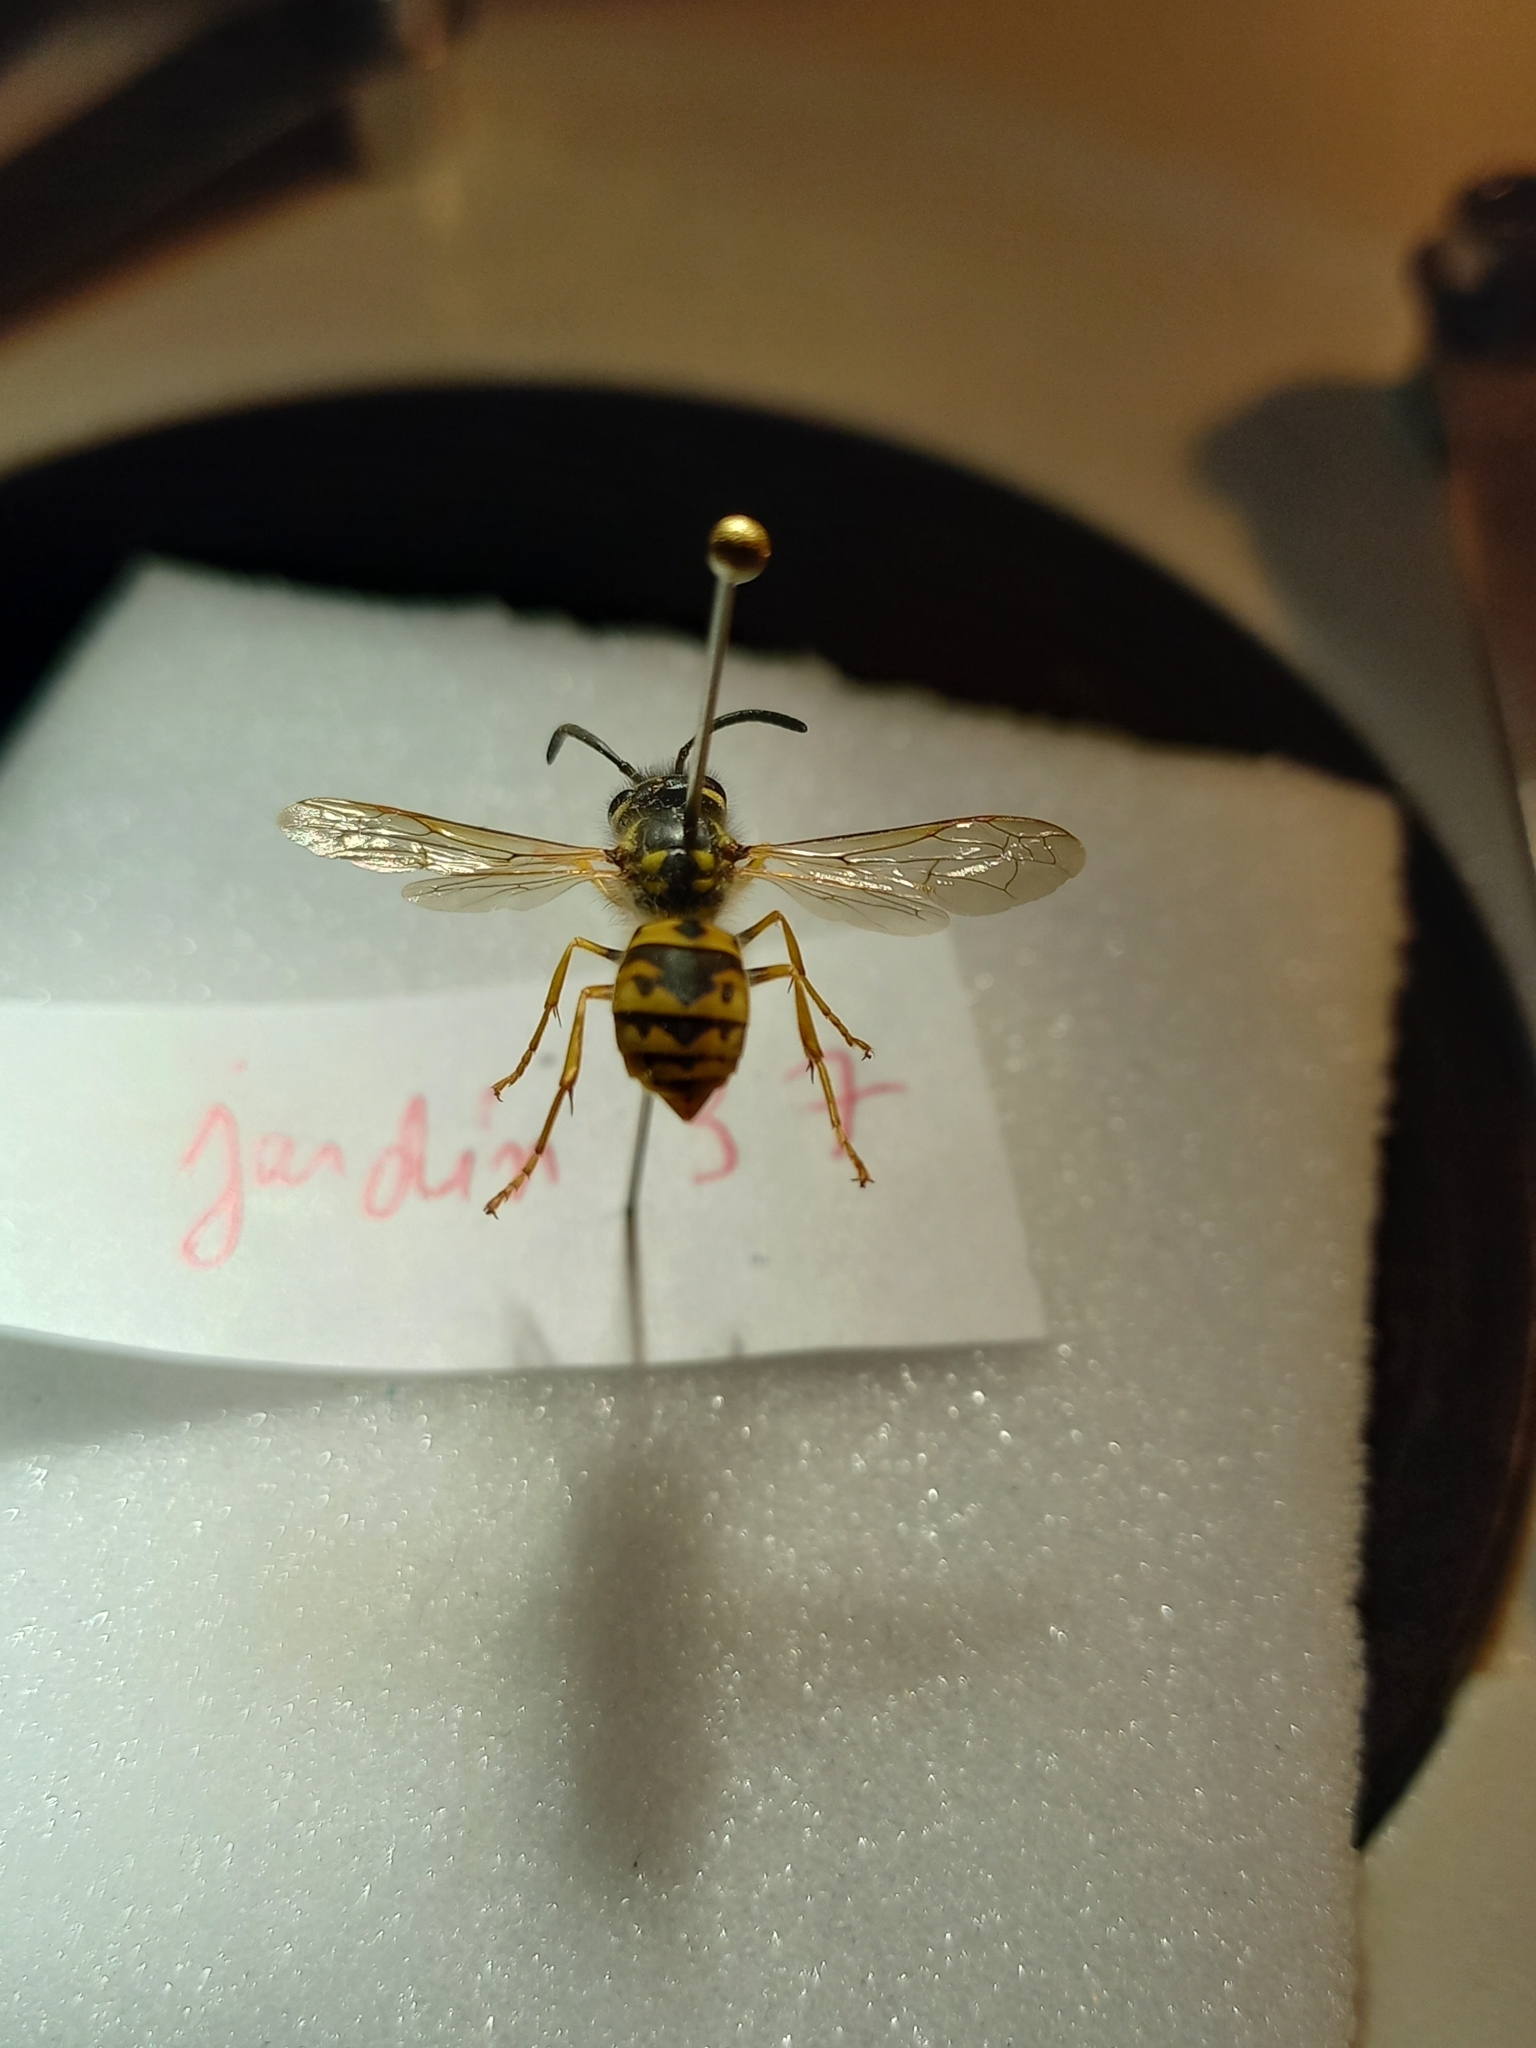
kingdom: Animalia
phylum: Arthropoda
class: Insecta
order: Hymenoptera
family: Vespidae
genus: Vespula
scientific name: Vespula germanica
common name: German wasp
